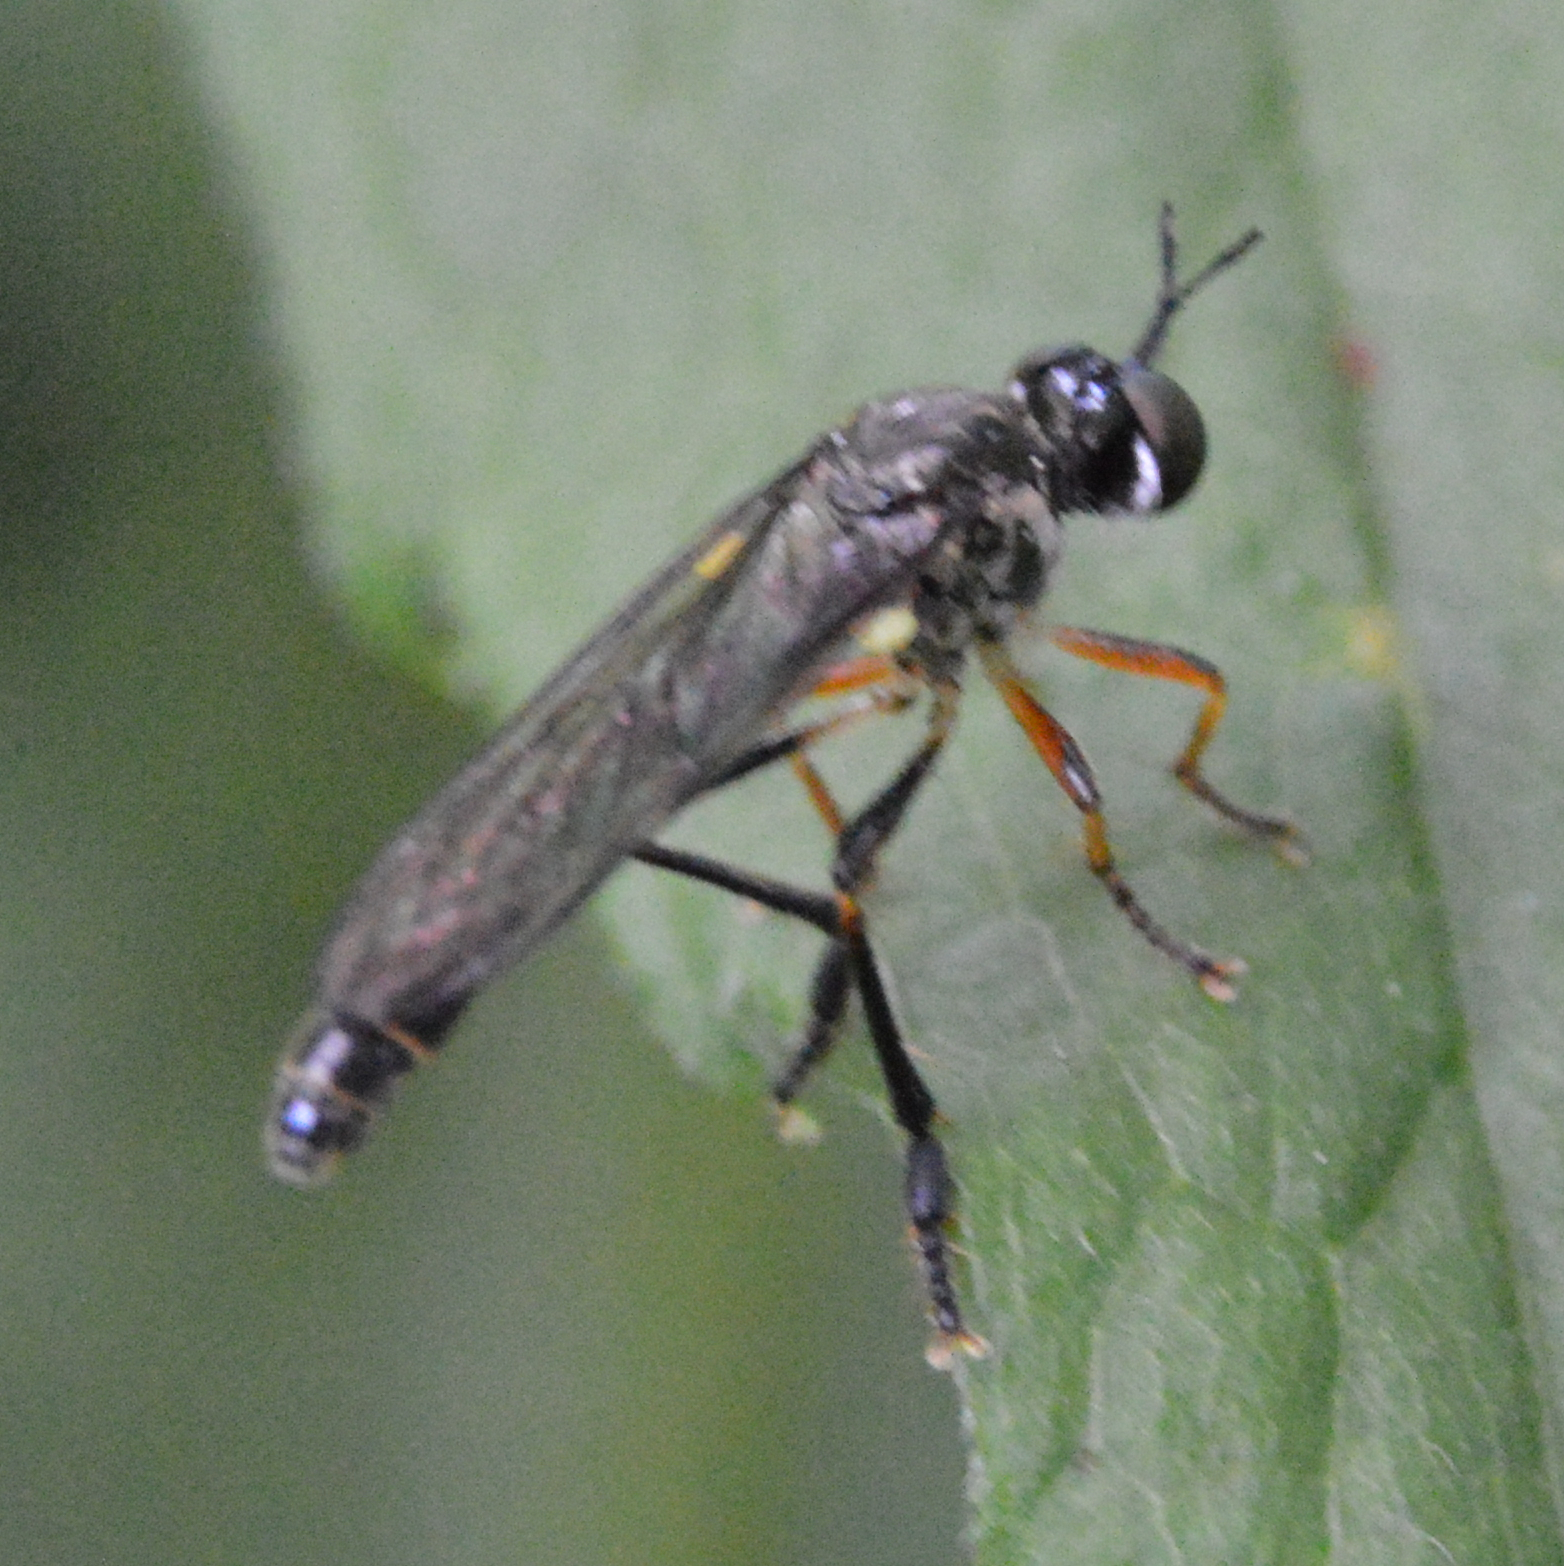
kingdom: Animalia
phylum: Arthropoda
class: Insecta
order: Diptera
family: Asilidae
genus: Dioctria
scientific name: Dioctria hyalipennis
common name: Stripe-legged robberfly
